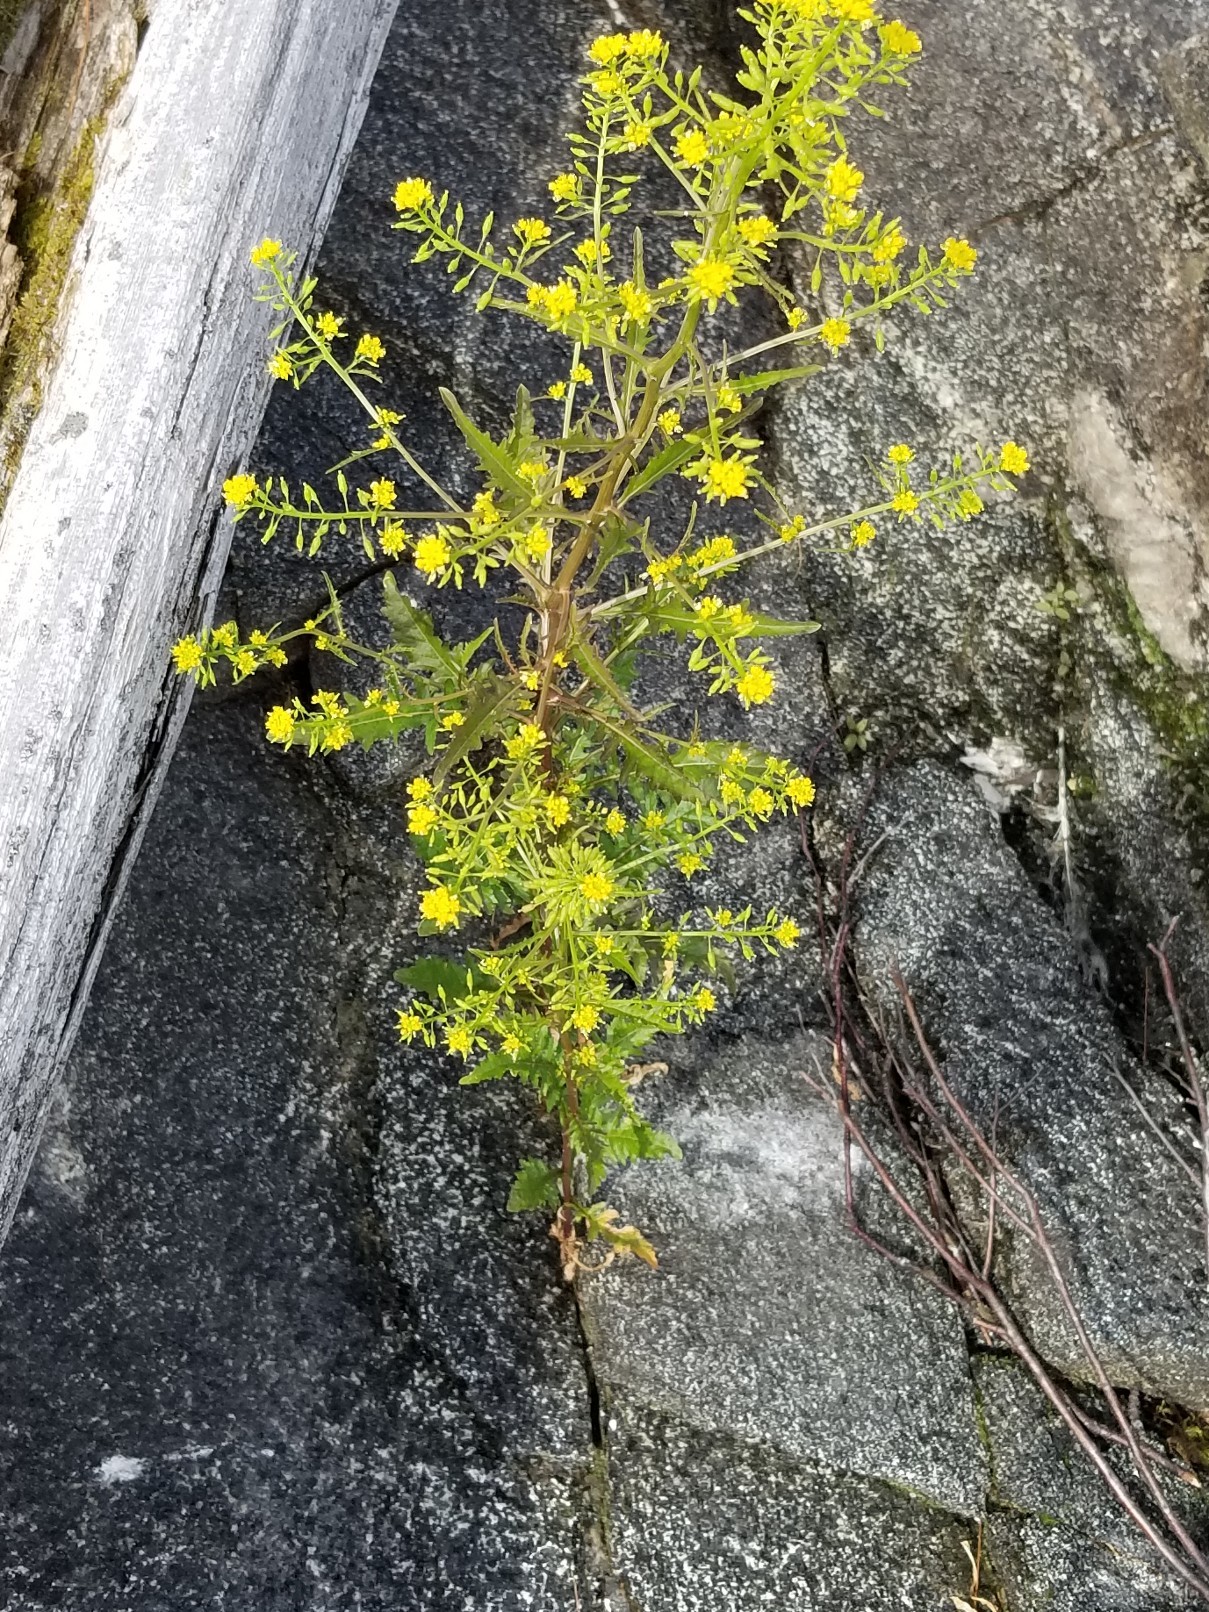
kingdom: Plantae
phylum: Tracheophyta
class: Magnoliopsida
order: Brassicales
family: Brassicaceae
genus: Rorippa
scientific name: Rorippa palustris
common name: Marsh yellow-cress
